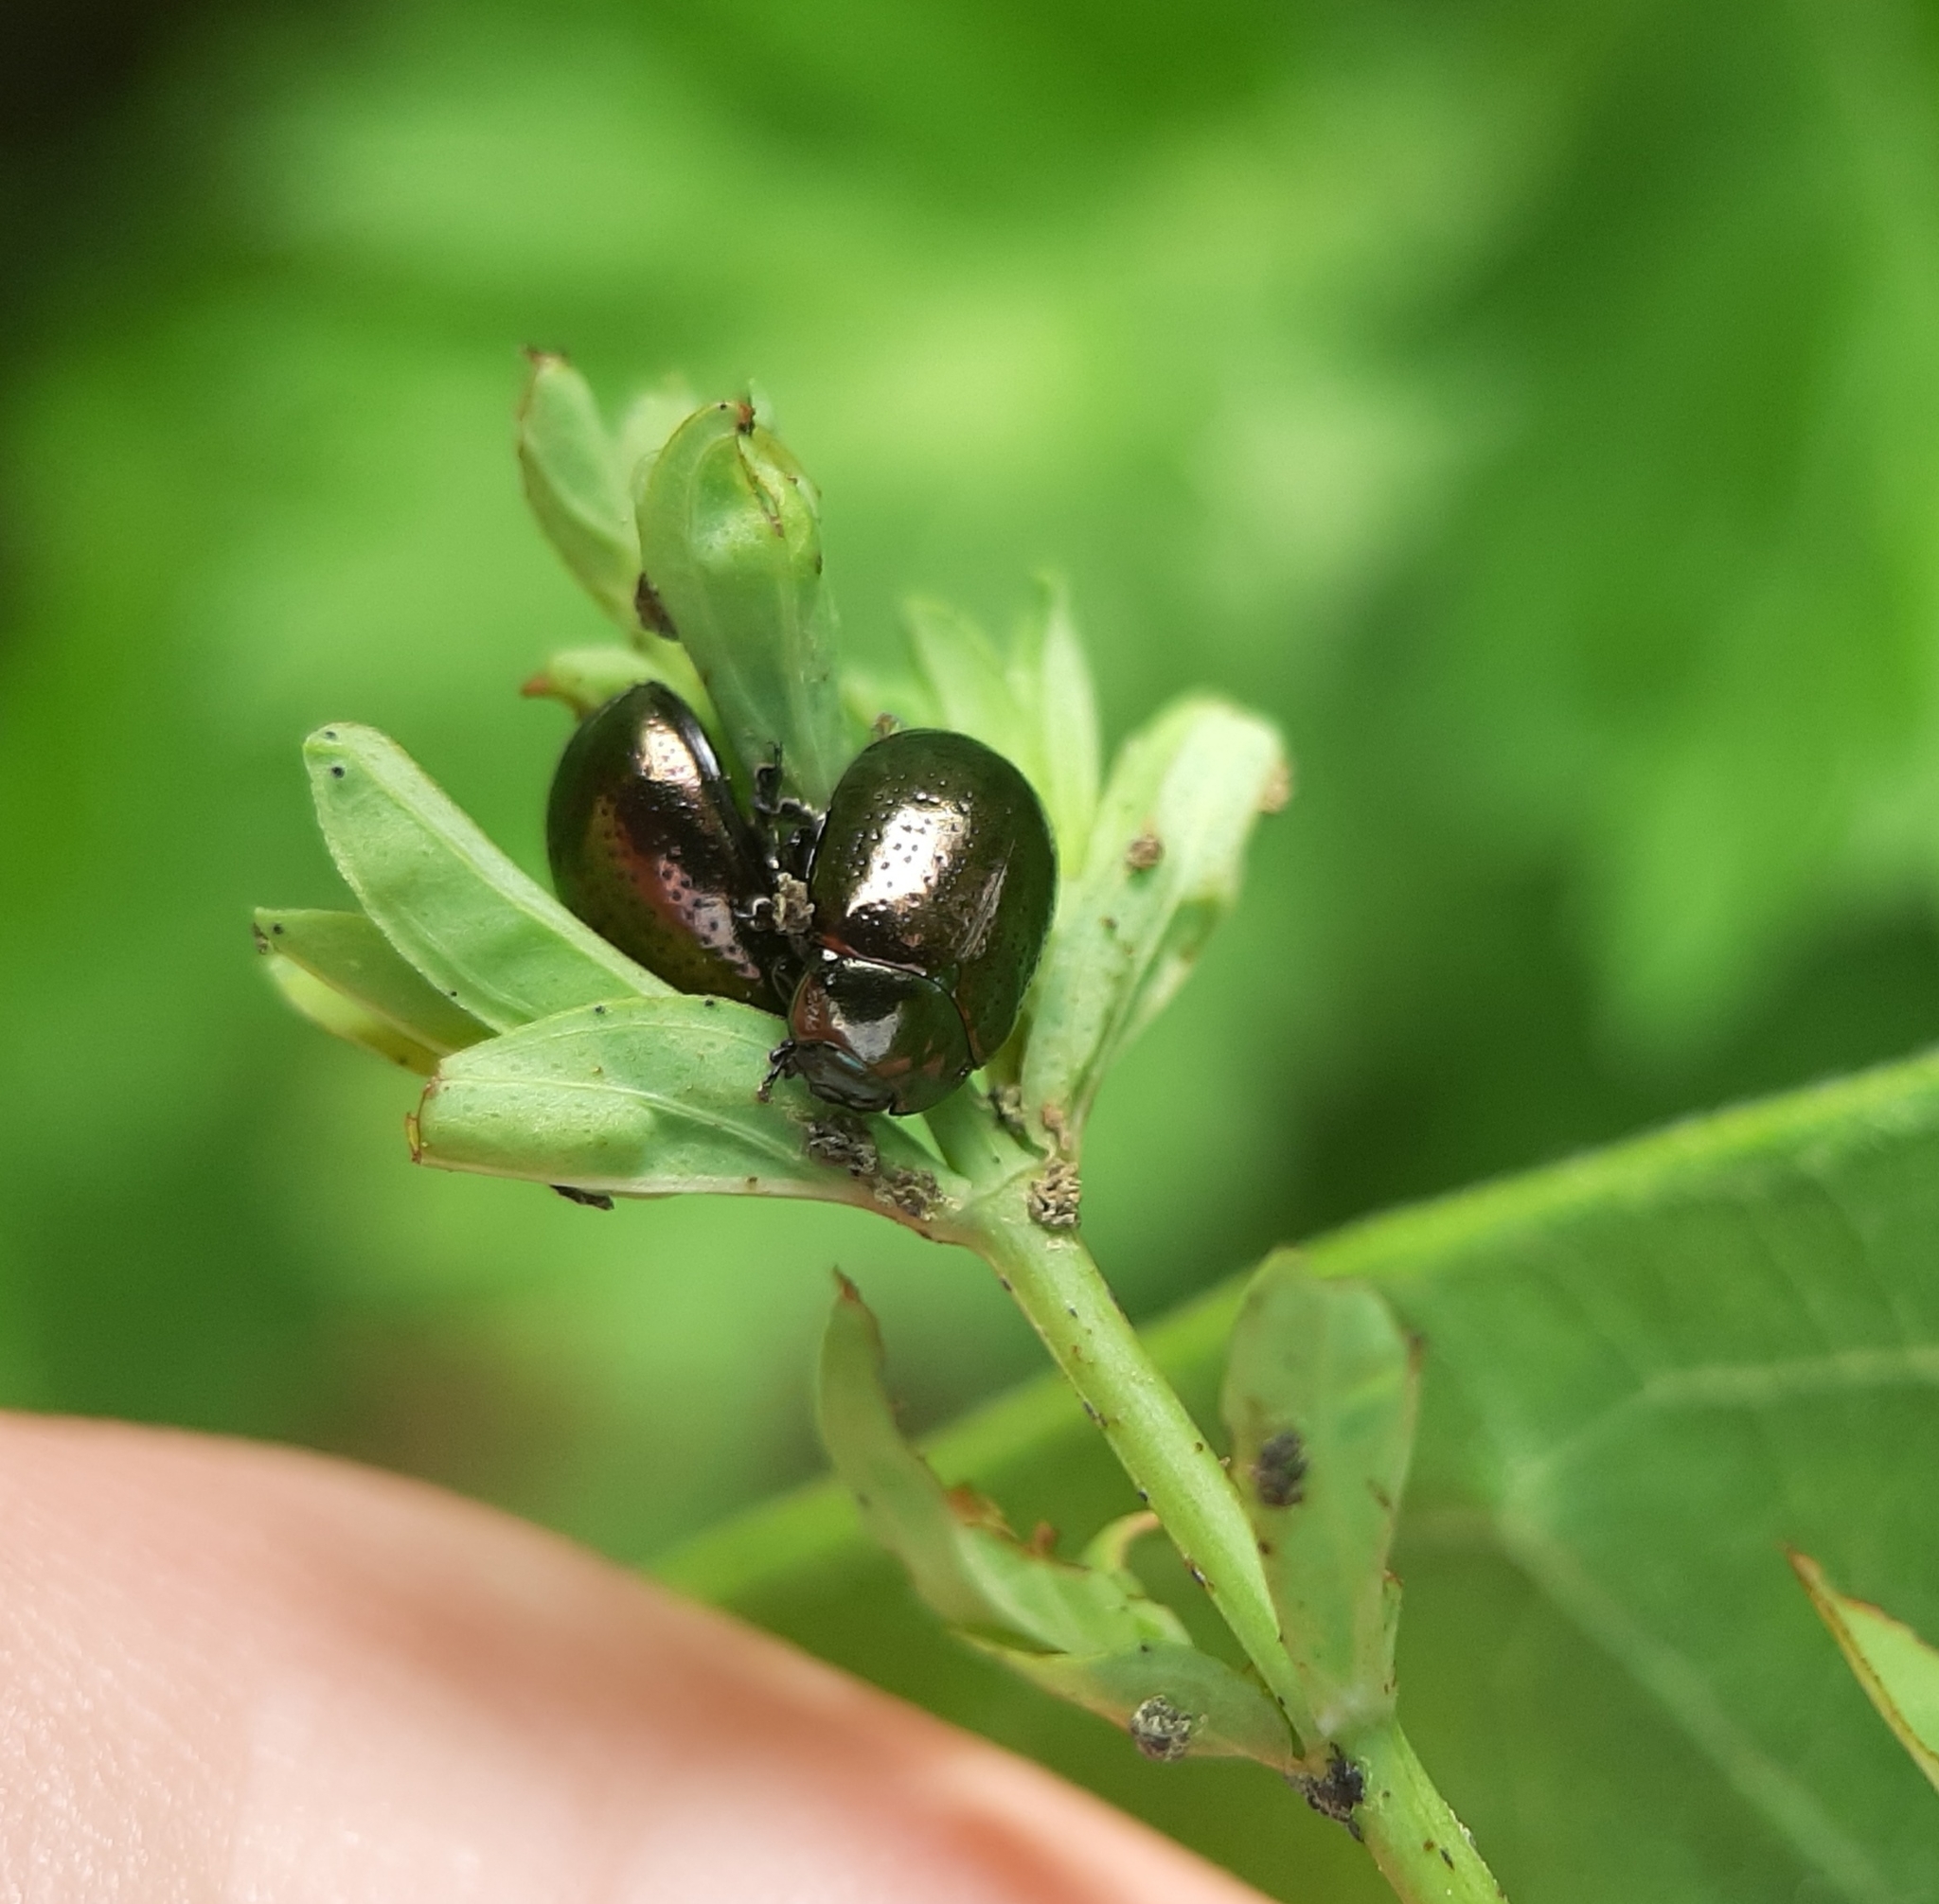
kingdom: Animalia
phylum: Arthropoda
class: Insecta
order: Coleoptera
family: Chrysomelidae
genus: Chrysolina
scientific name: Chrysolina hyperici
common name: St. johnswort beetle
